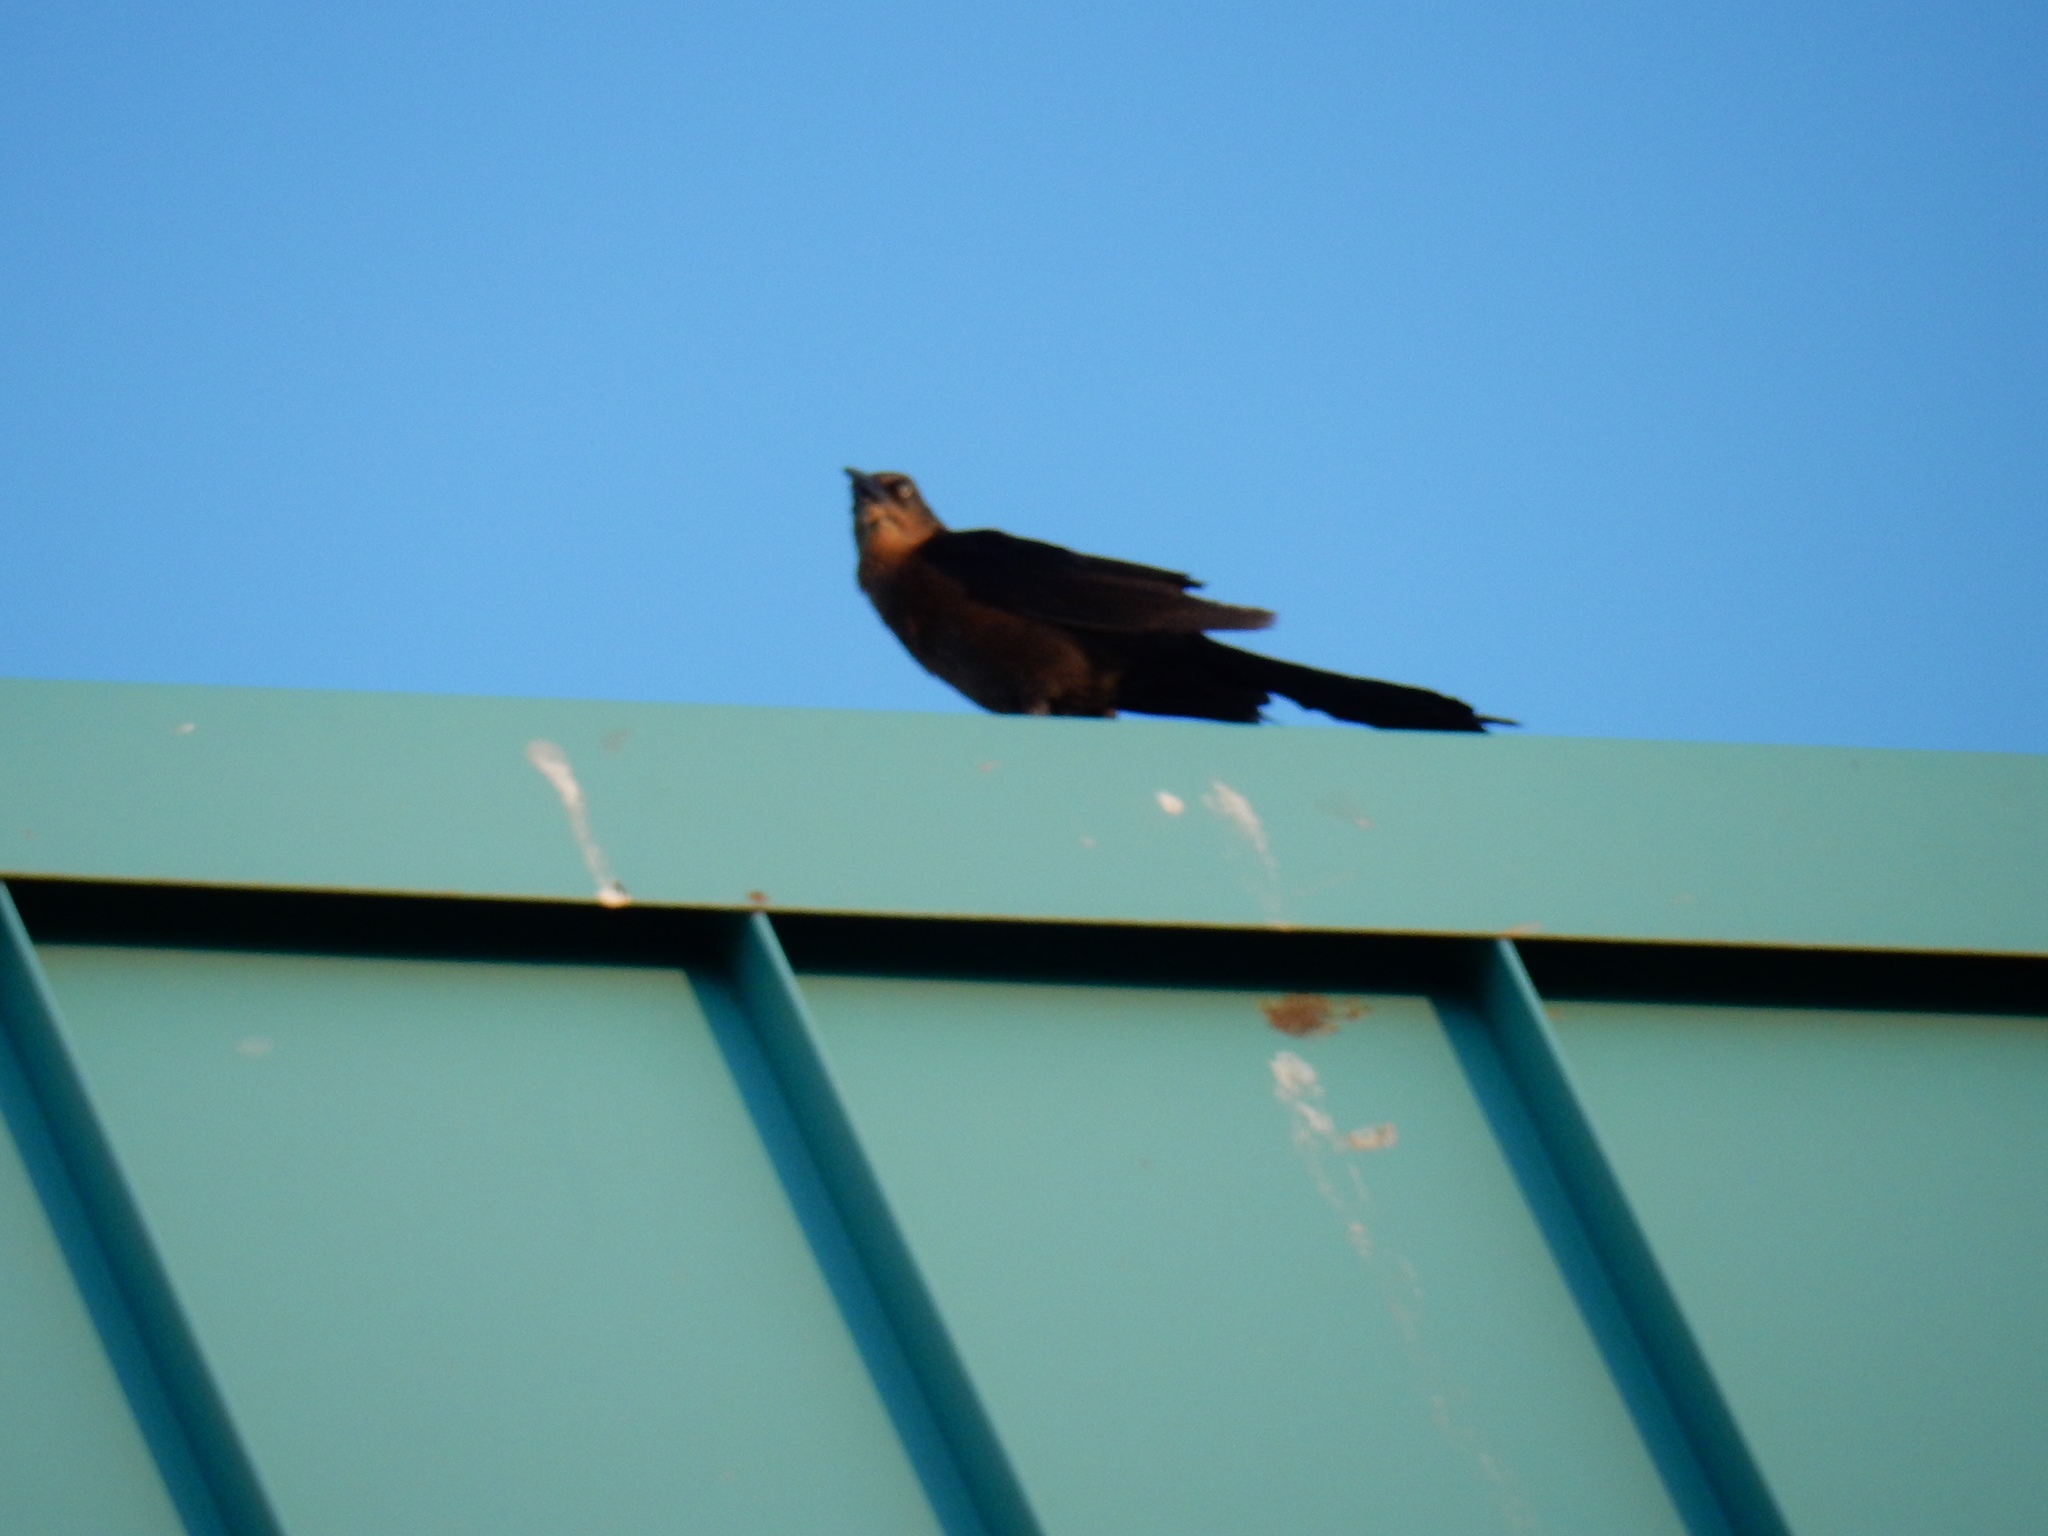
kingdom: Animalia
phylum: Chordata
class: Aves
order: Passeriformes
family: Icteridae
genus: Quiscalus
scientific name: Quiscalus mexicanus
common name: Great-tailed grackle
